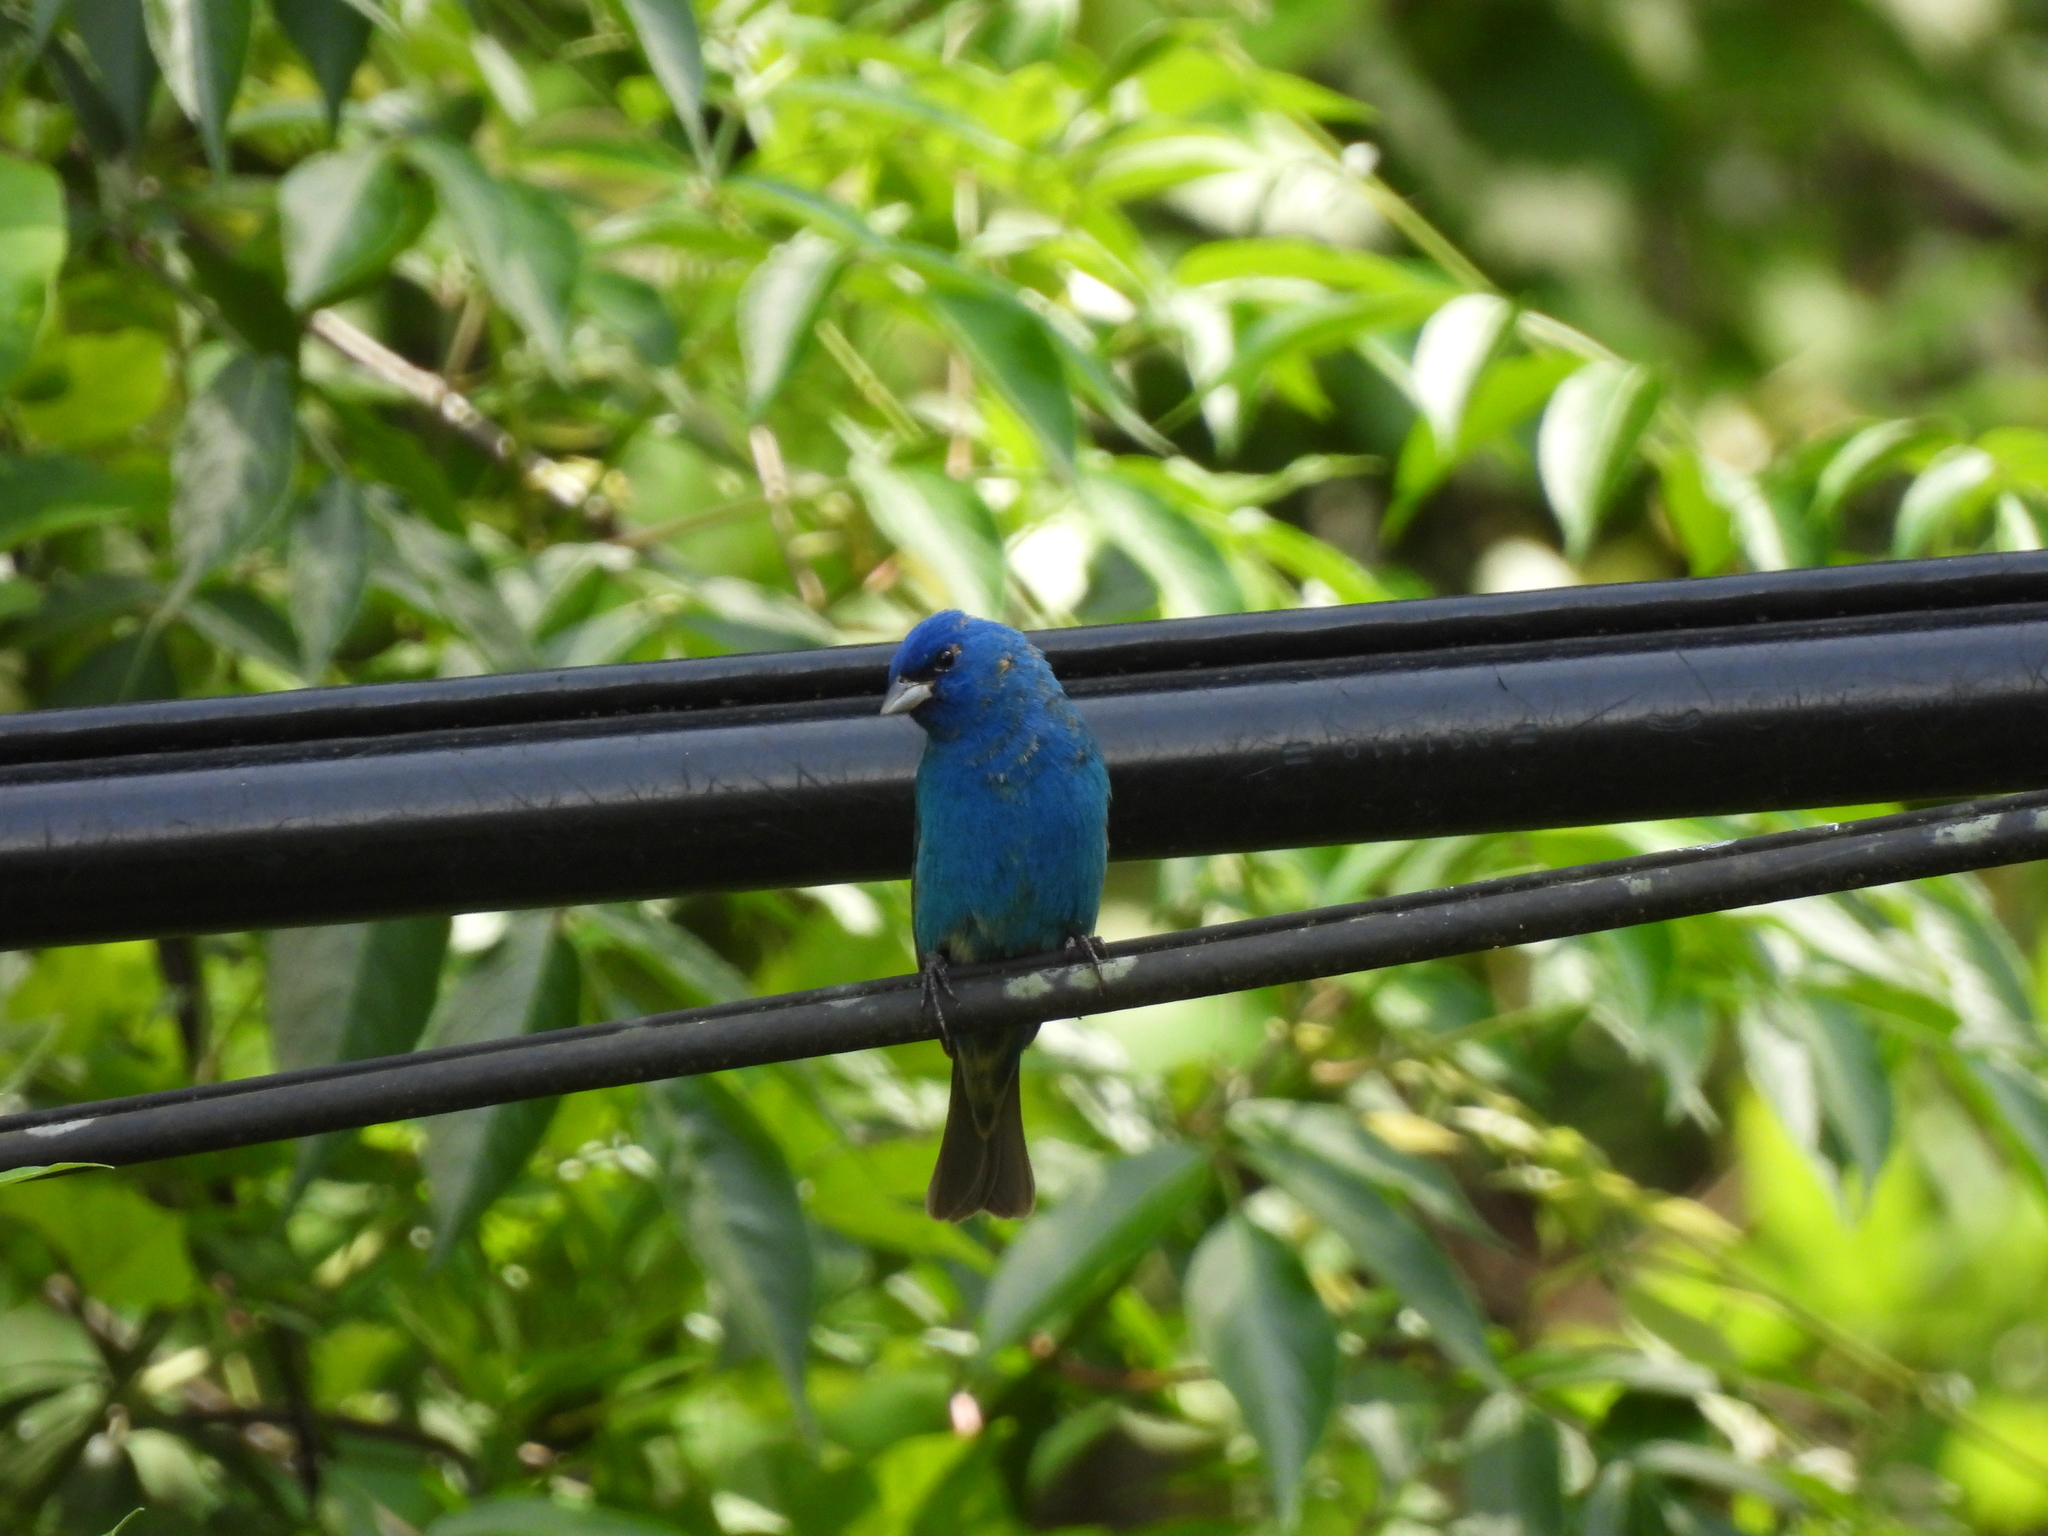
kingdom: Animalia
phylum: Chordata
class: Aves
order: Passeriformes
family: Cardinalidae
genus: Passerina
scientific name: Passerina cyanea
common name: Indigo bunting
